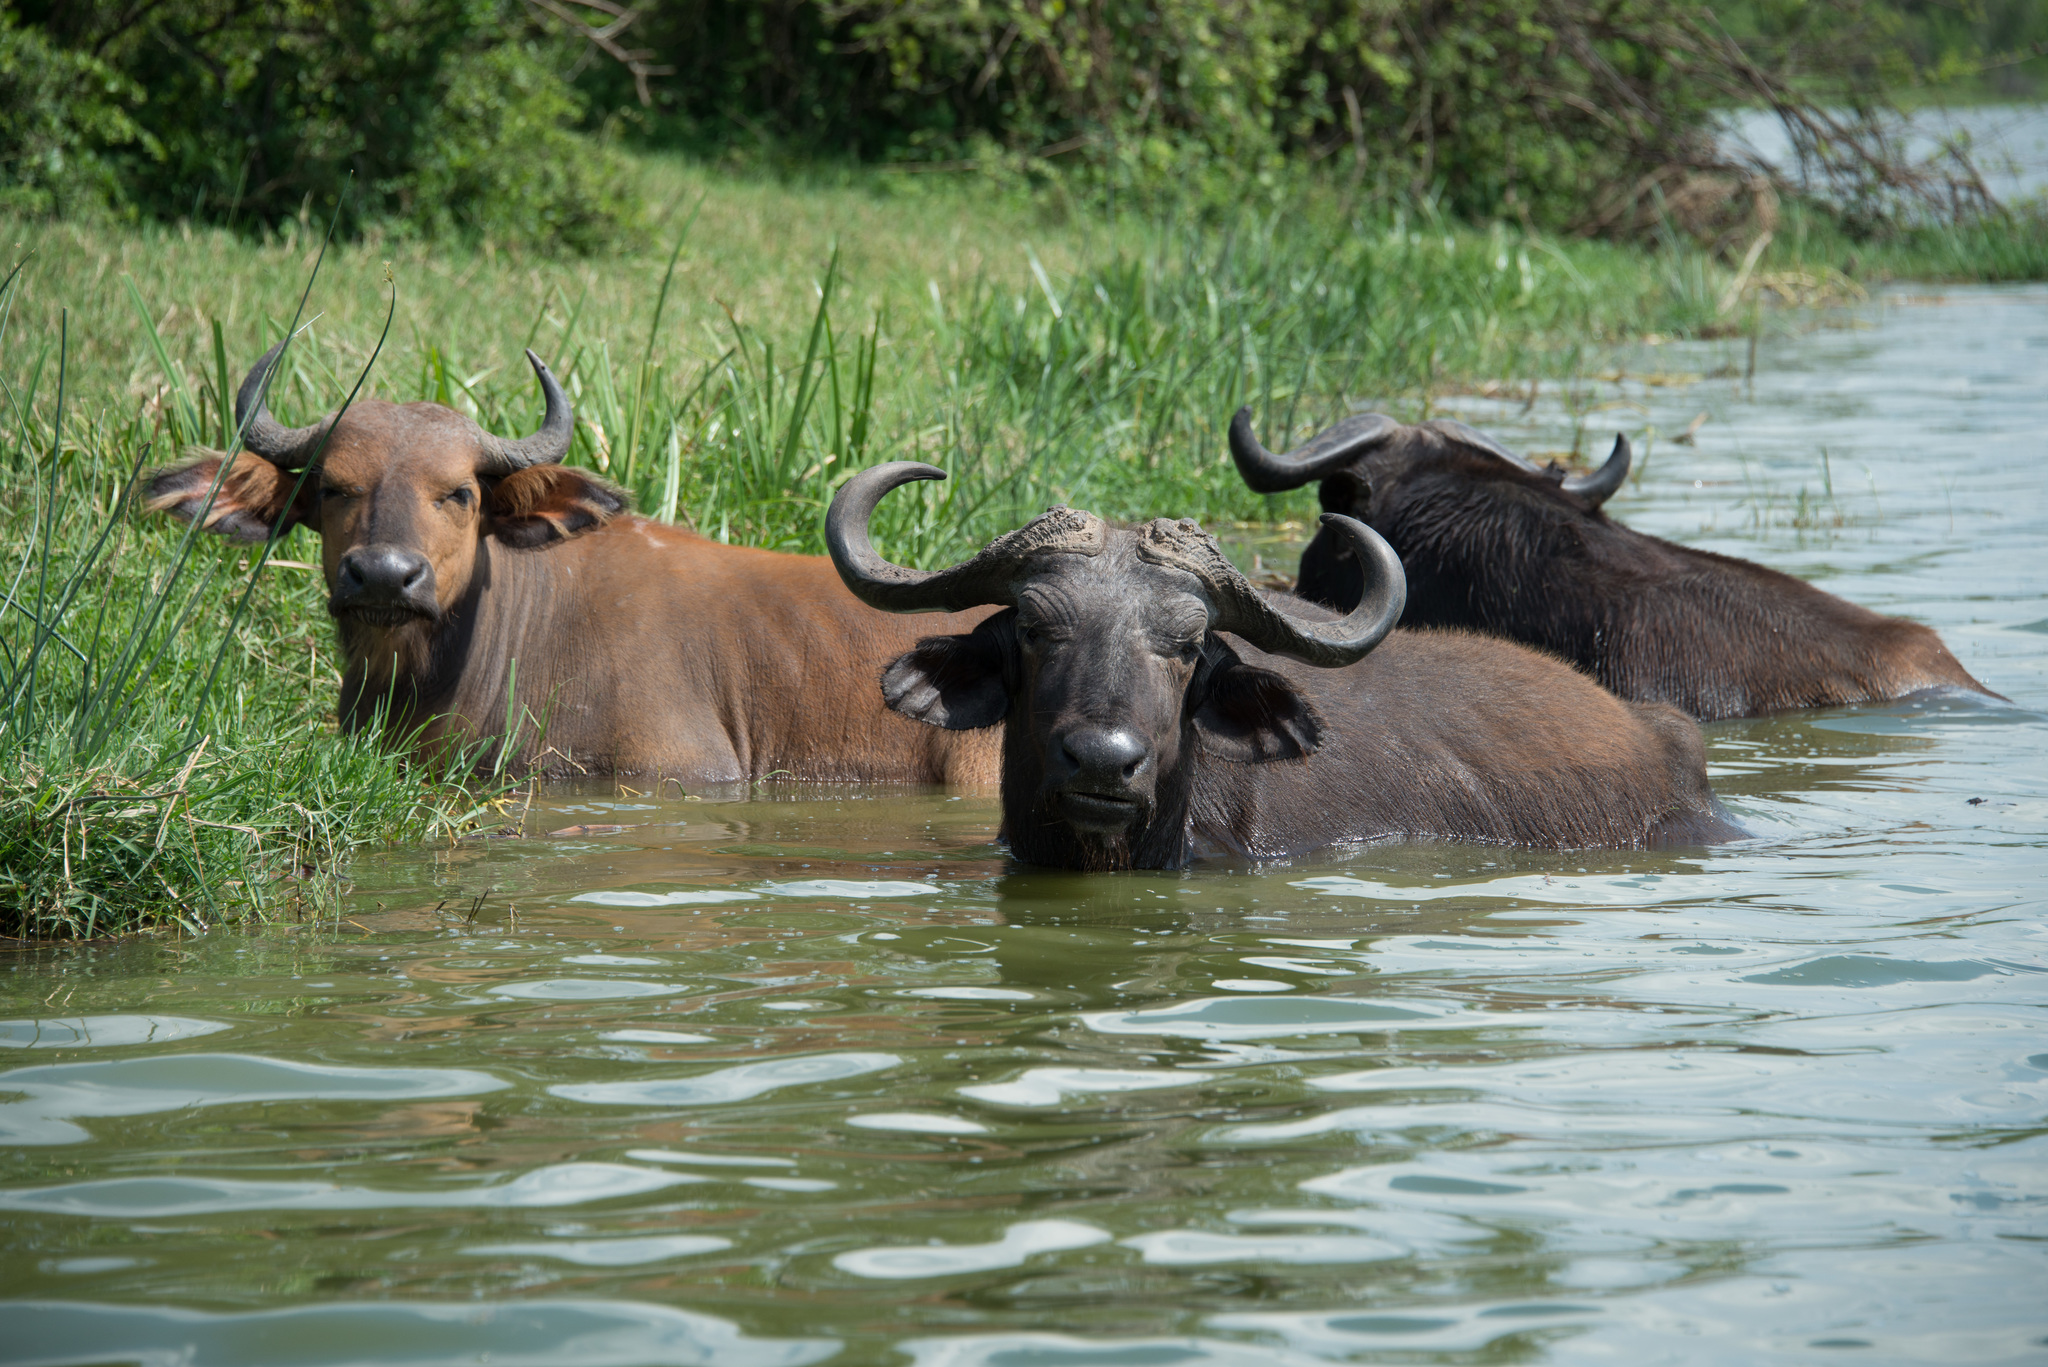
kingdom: Animalia
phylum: Chordata
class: Mammalia
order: Artiodactyla
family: Bovidae
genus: Syncerus
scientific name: Syncerus caffer
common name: African buffalo
